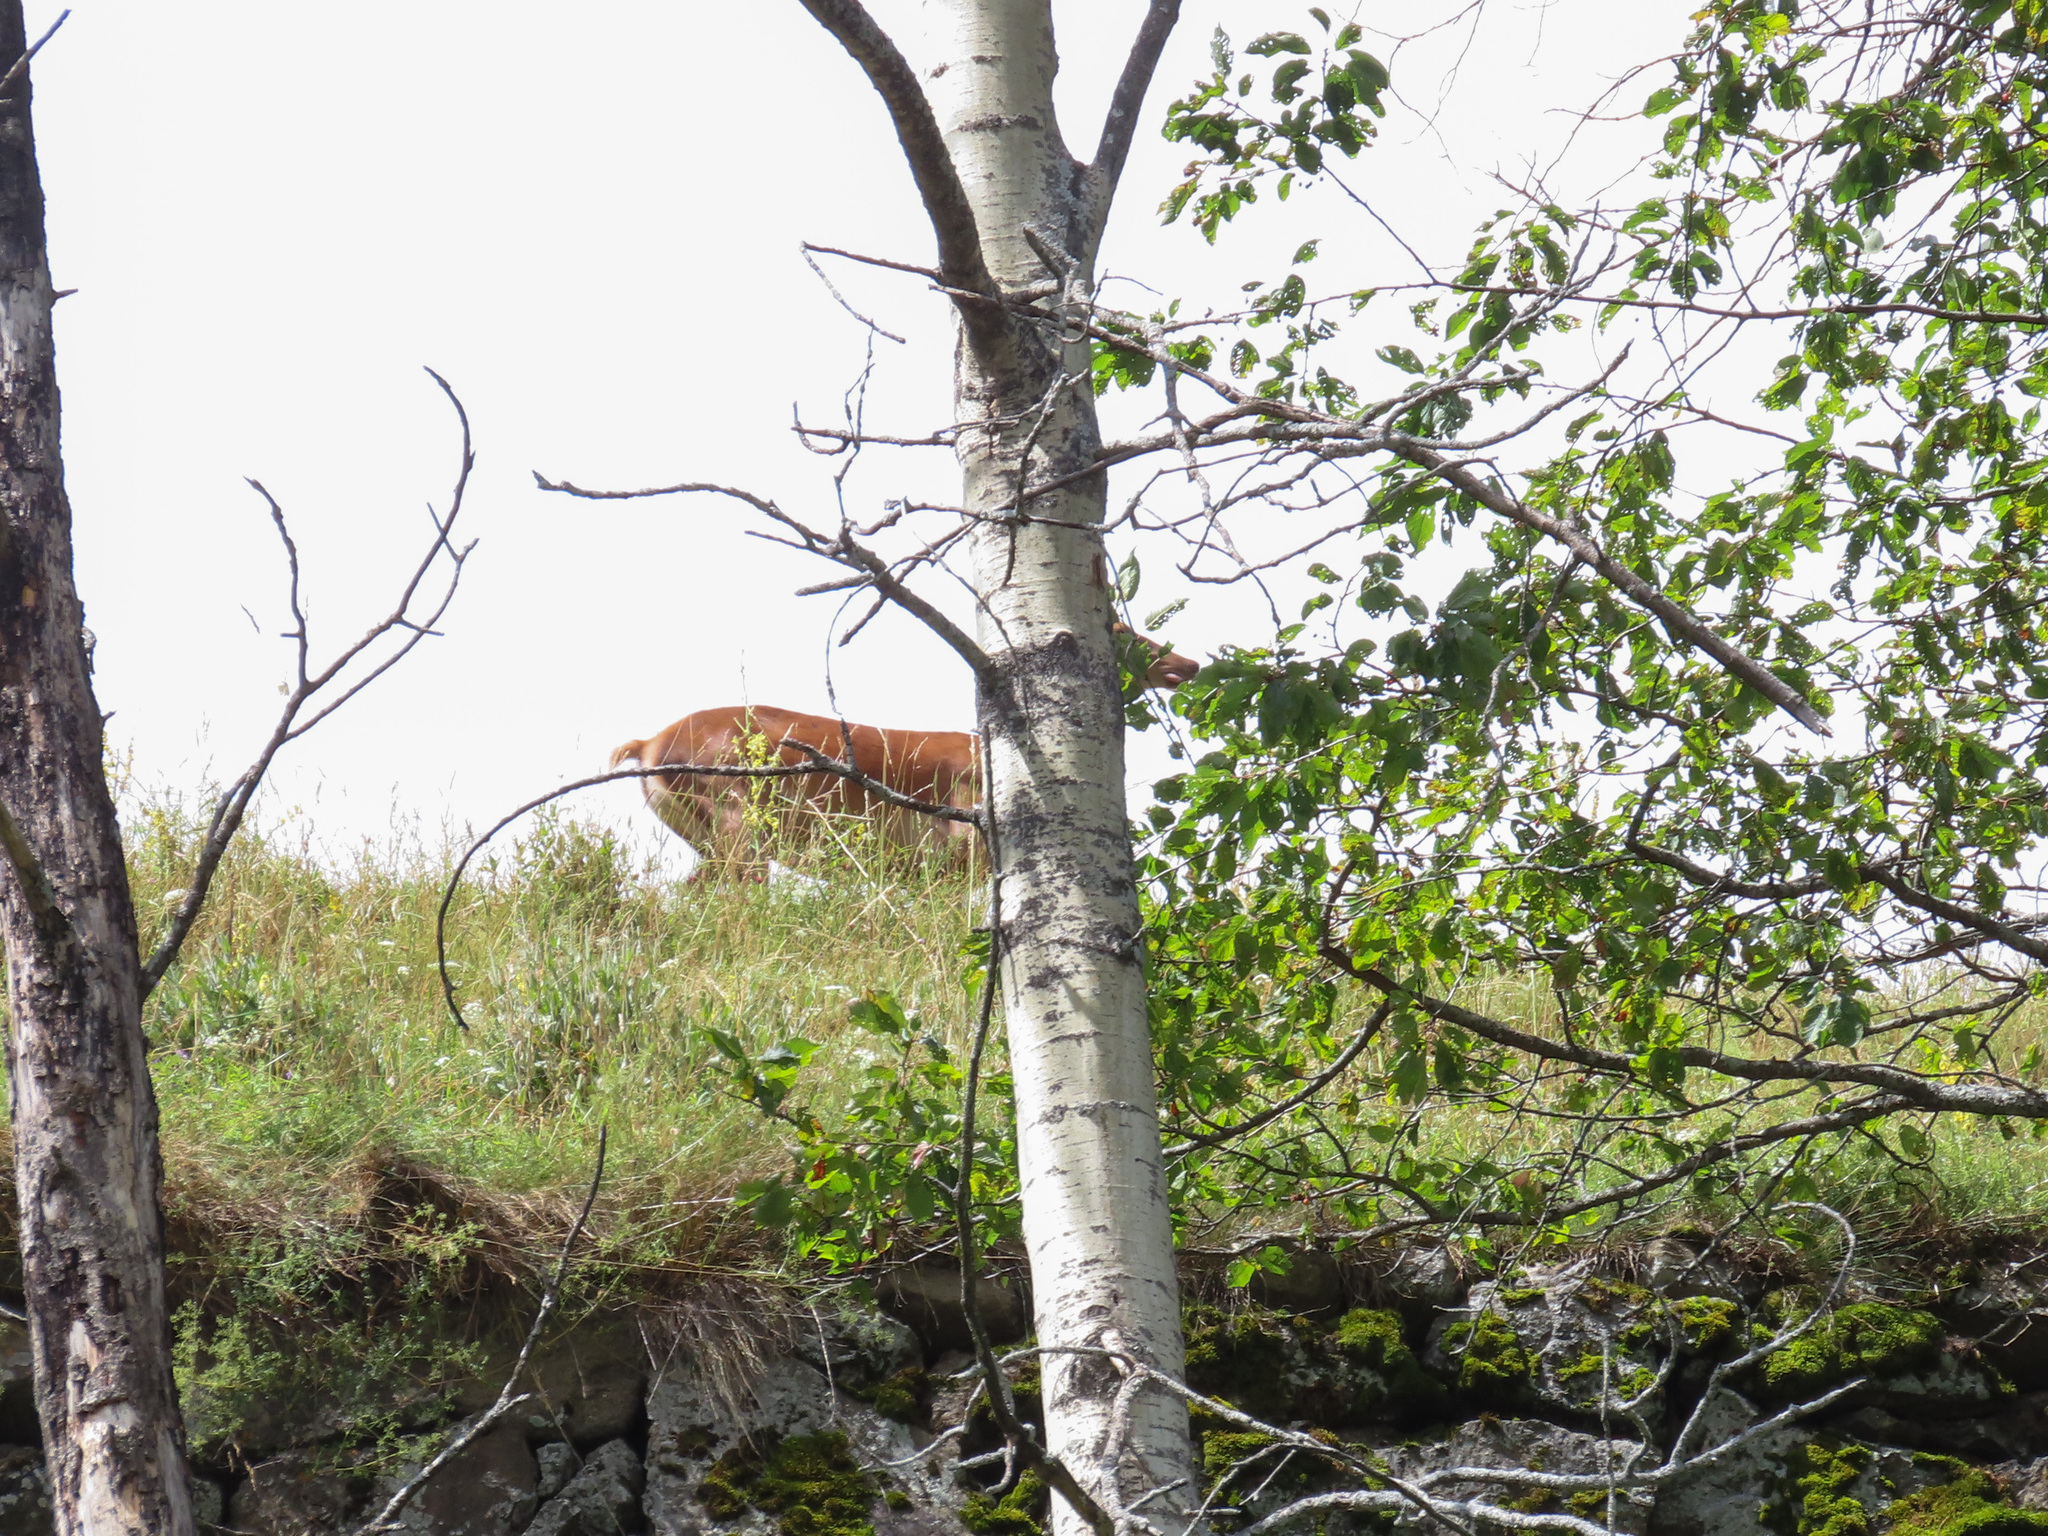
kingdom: Animalia
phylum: Chordata
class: Mammalia
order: Artiodactyla
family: Cervidae
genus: Cervus
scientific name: Cervus elaphus
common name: Red deer
